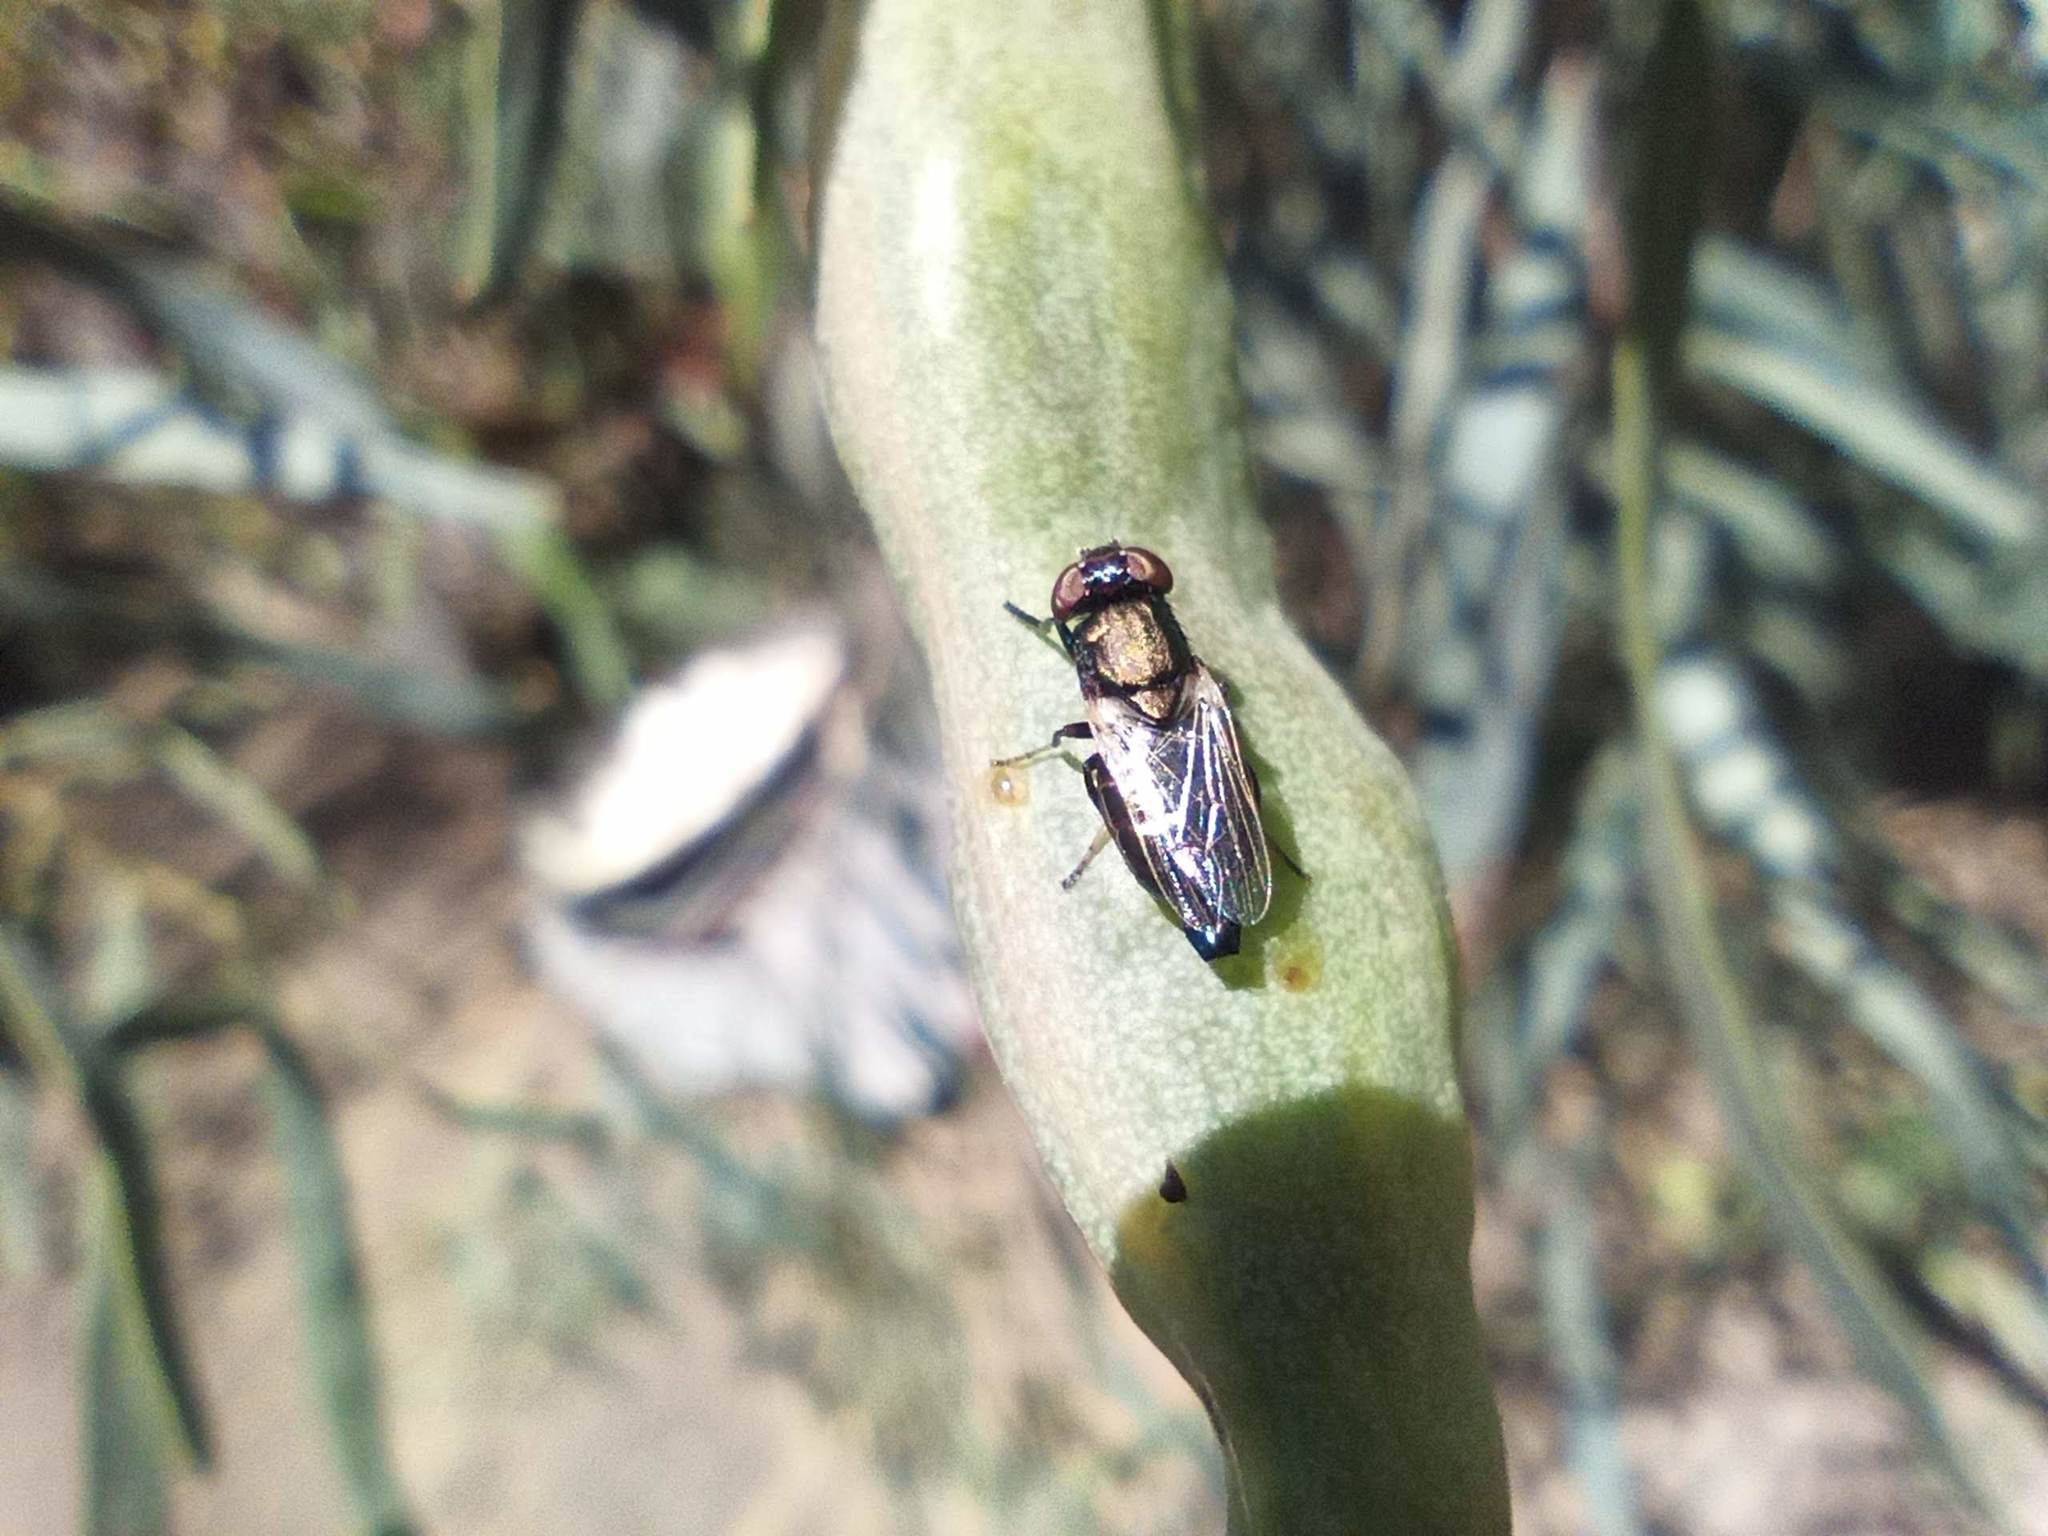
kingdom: Animalia
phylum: Arthropoda
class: Insecta
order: Diptera
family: Ulidiidae
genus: Physiphora
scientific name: Physiphora alceae
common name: Picture-winged fly
